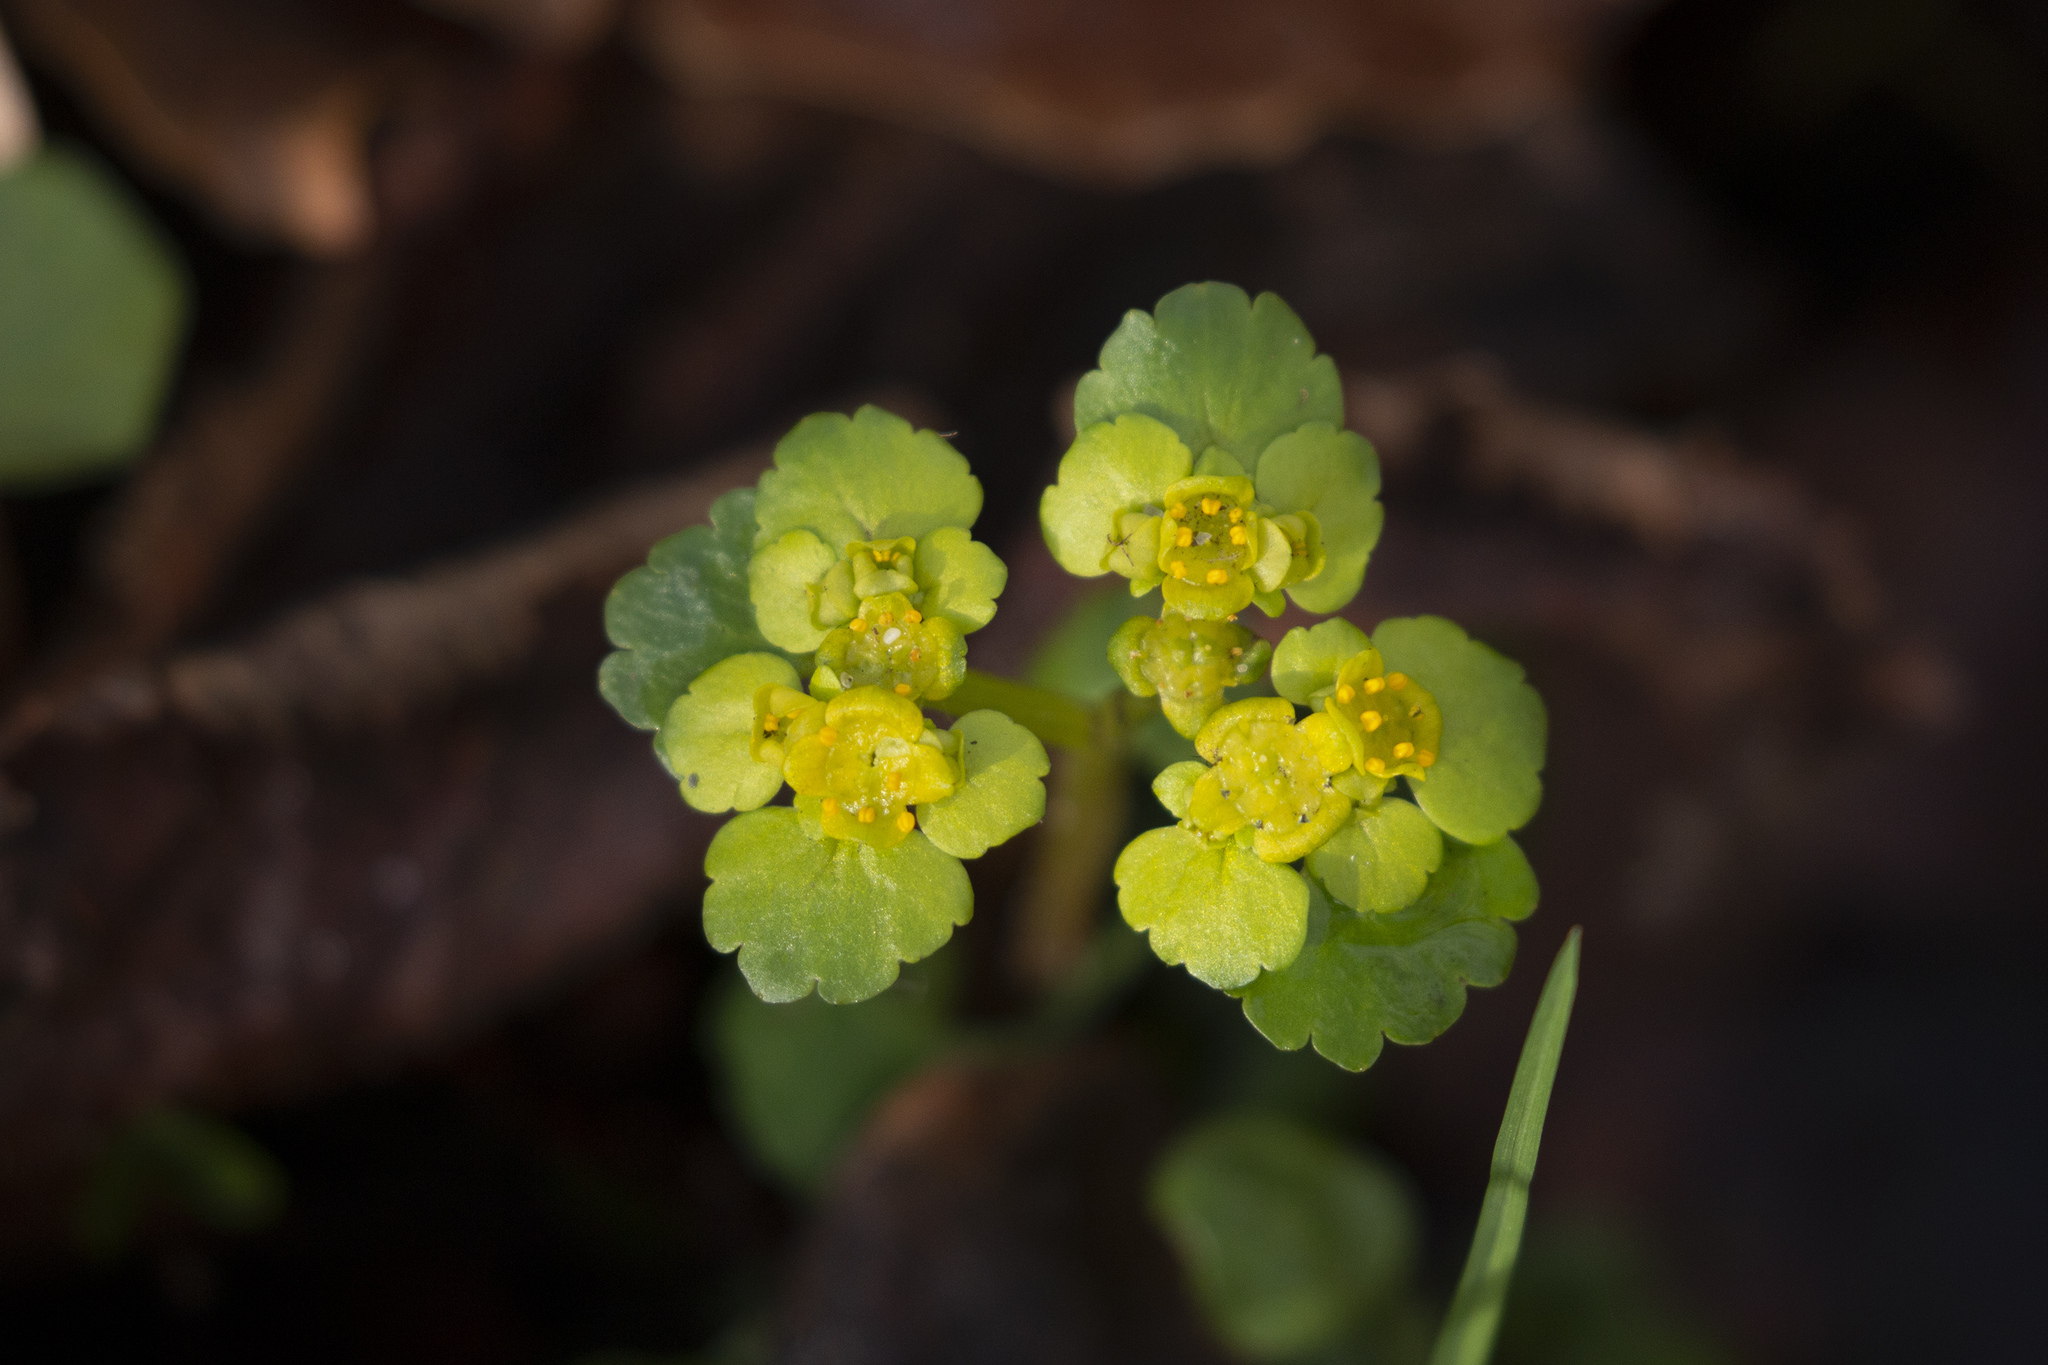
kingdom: Plantae
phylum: Tracheophyta
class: Magnoliopsida
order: Saxifragales
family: Saxifragaceae
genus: Chrysosplenium
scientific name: Chrysosplenium alternifolium
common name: Alternate-leaved golden-saxifrage
